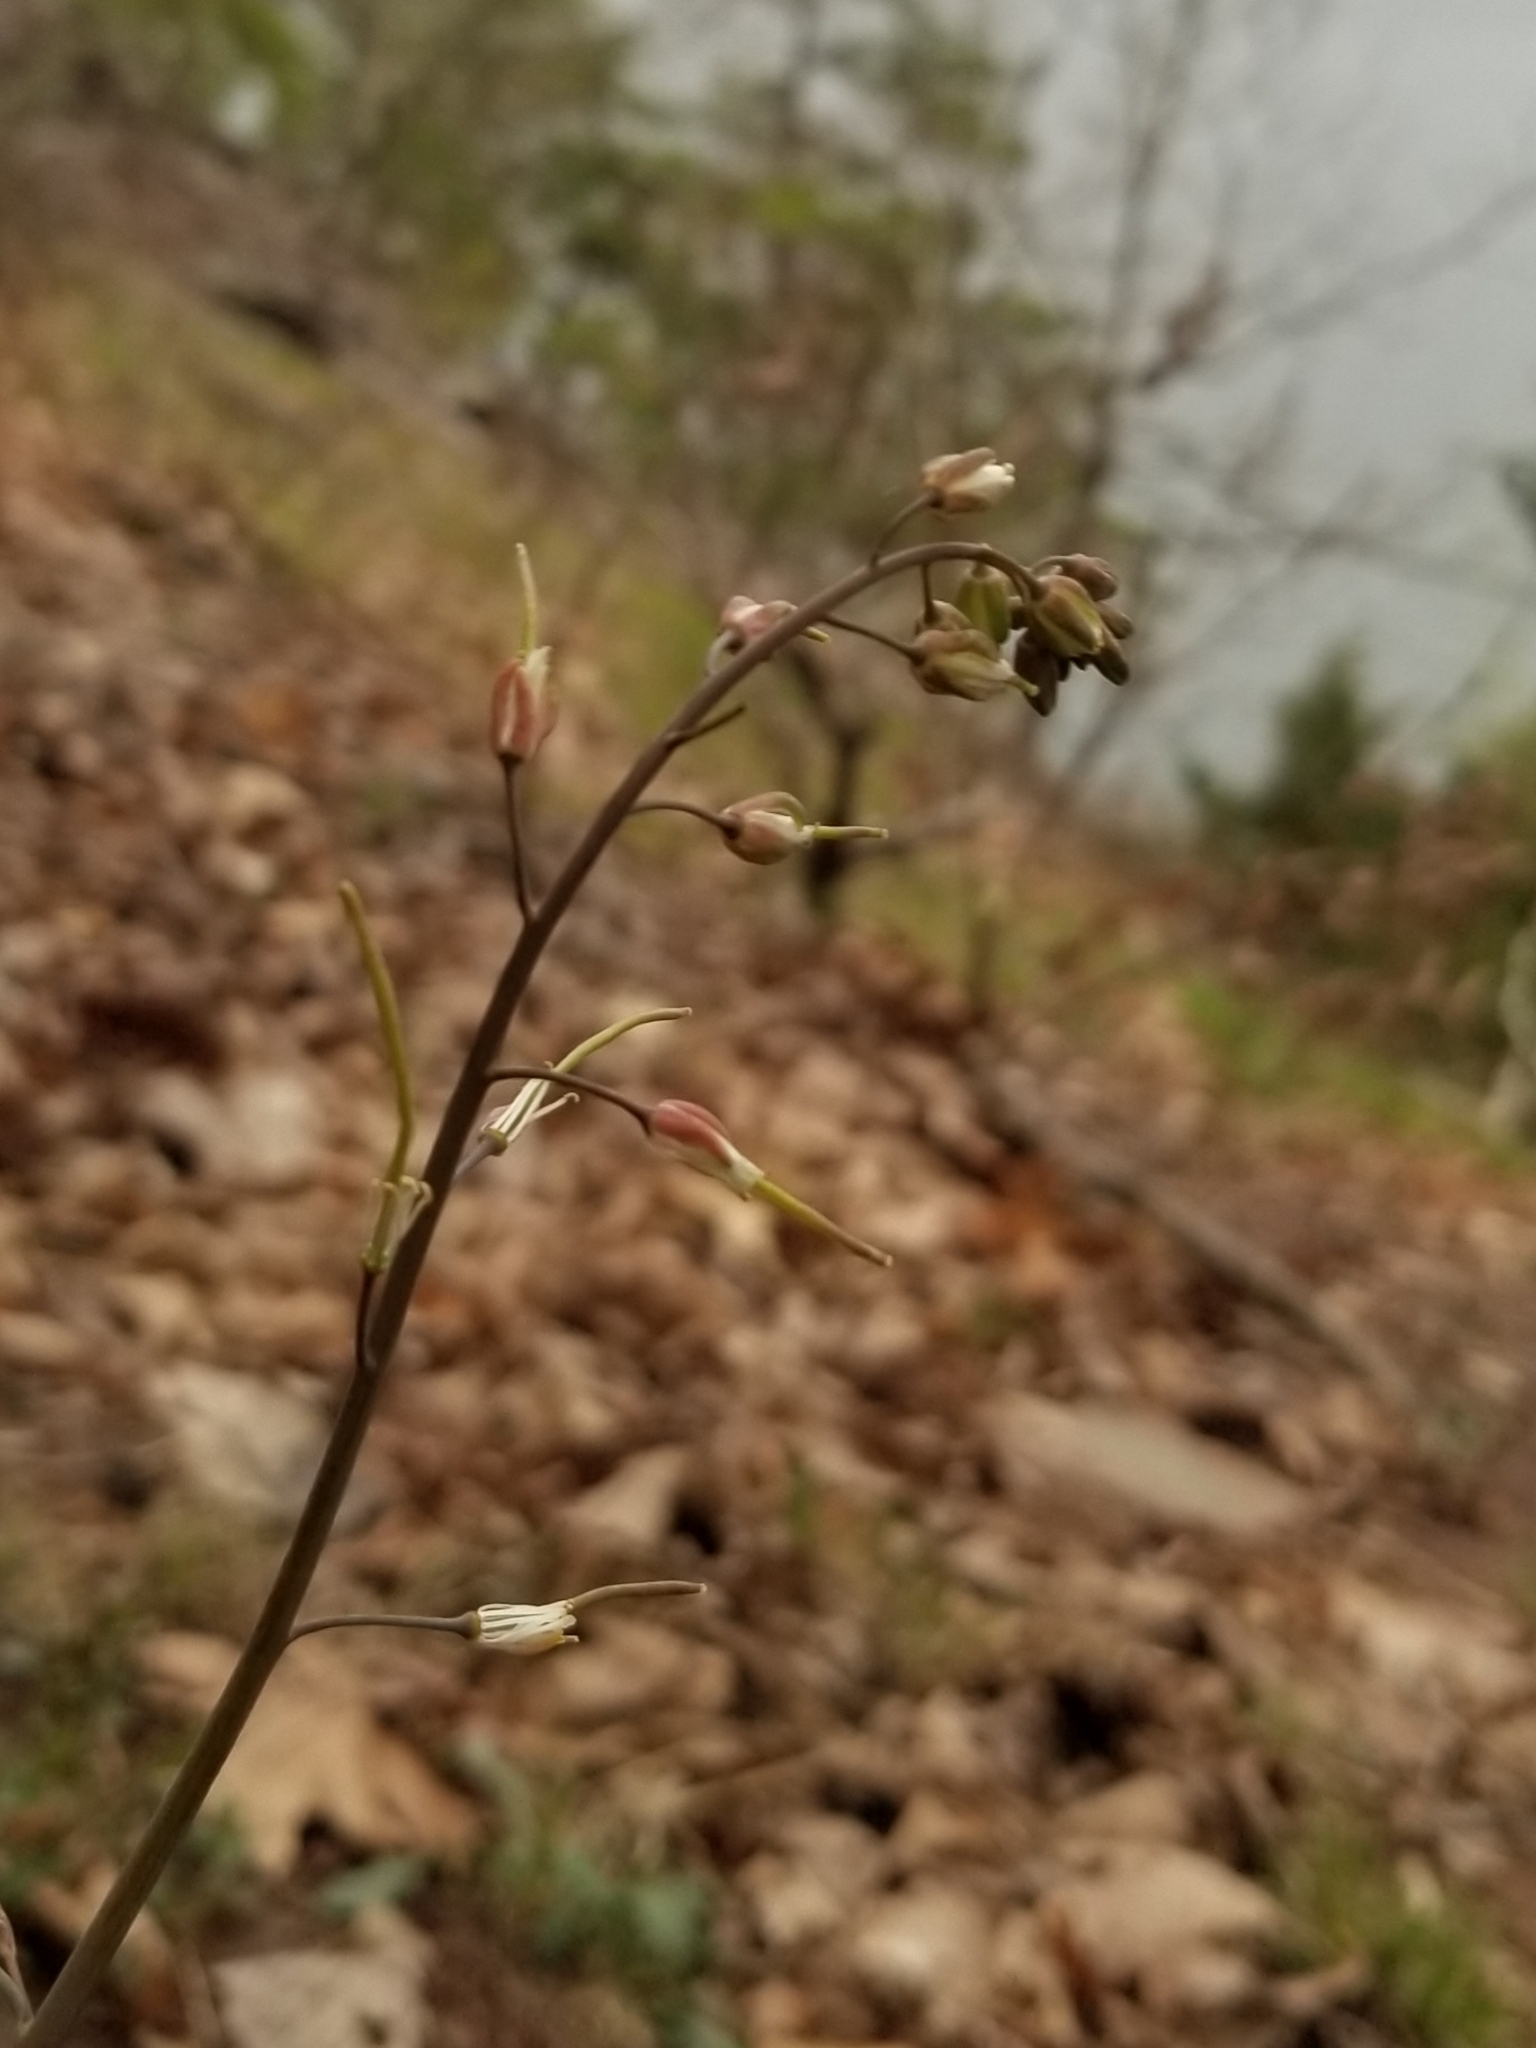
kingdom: Plantae
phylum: Tracheophyta
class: Magnoliopsida
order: Brassicales
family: Brassicaceae
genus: Borodinia
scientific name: Borodinia burkii
